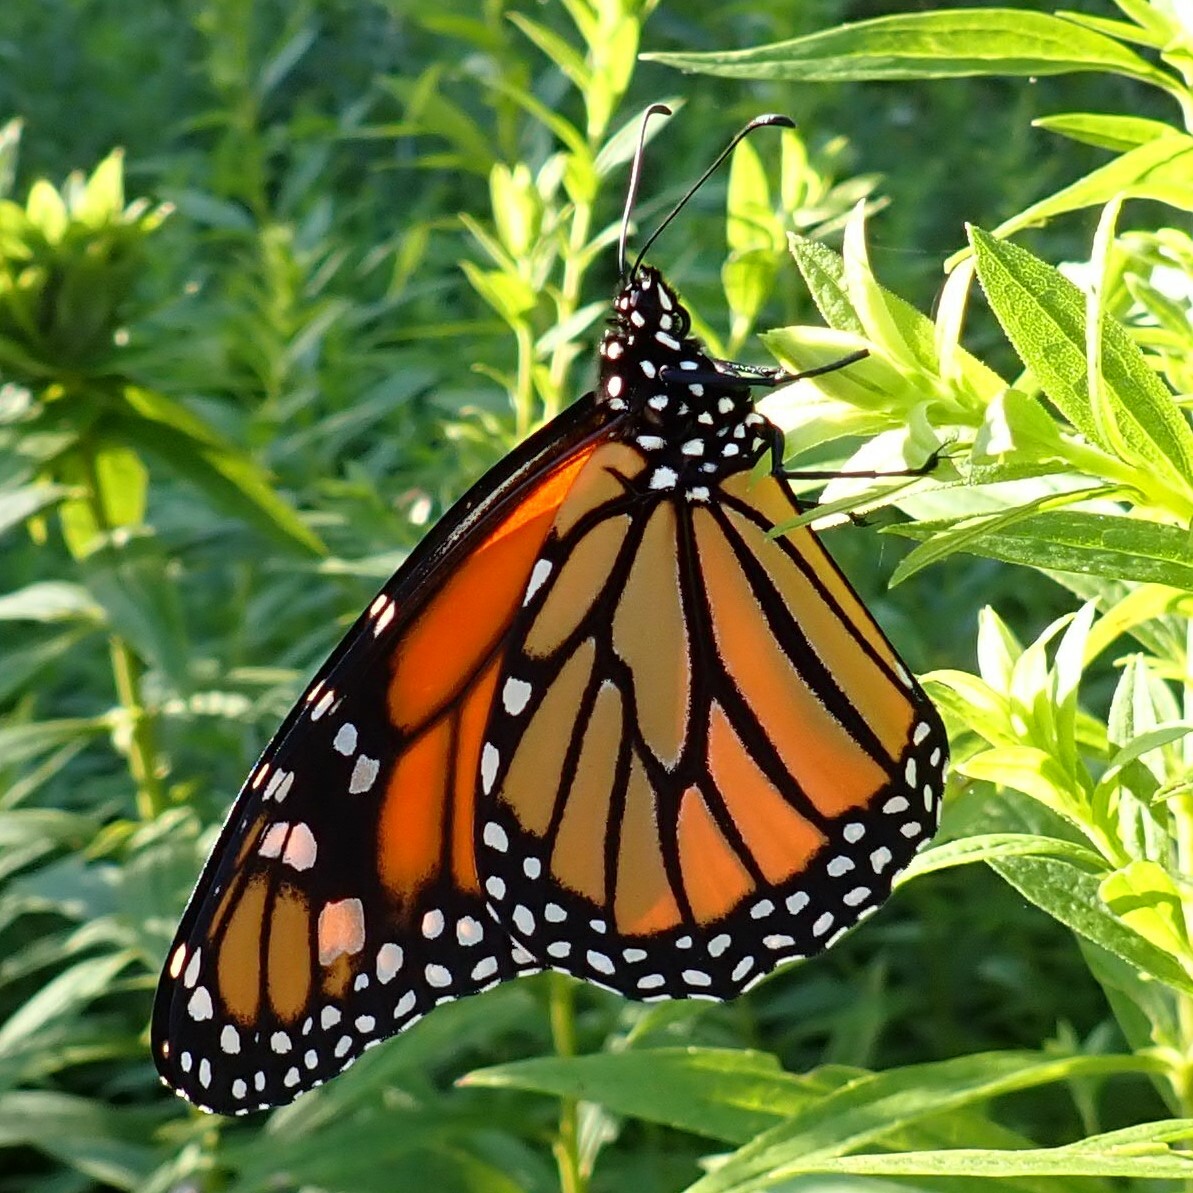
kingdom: Animalia
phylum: Arthropoda
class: Insecta
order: Lepidoptera
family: Nymphalidae
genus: Danaus
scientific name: Danaus plexippus
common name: Monarch
